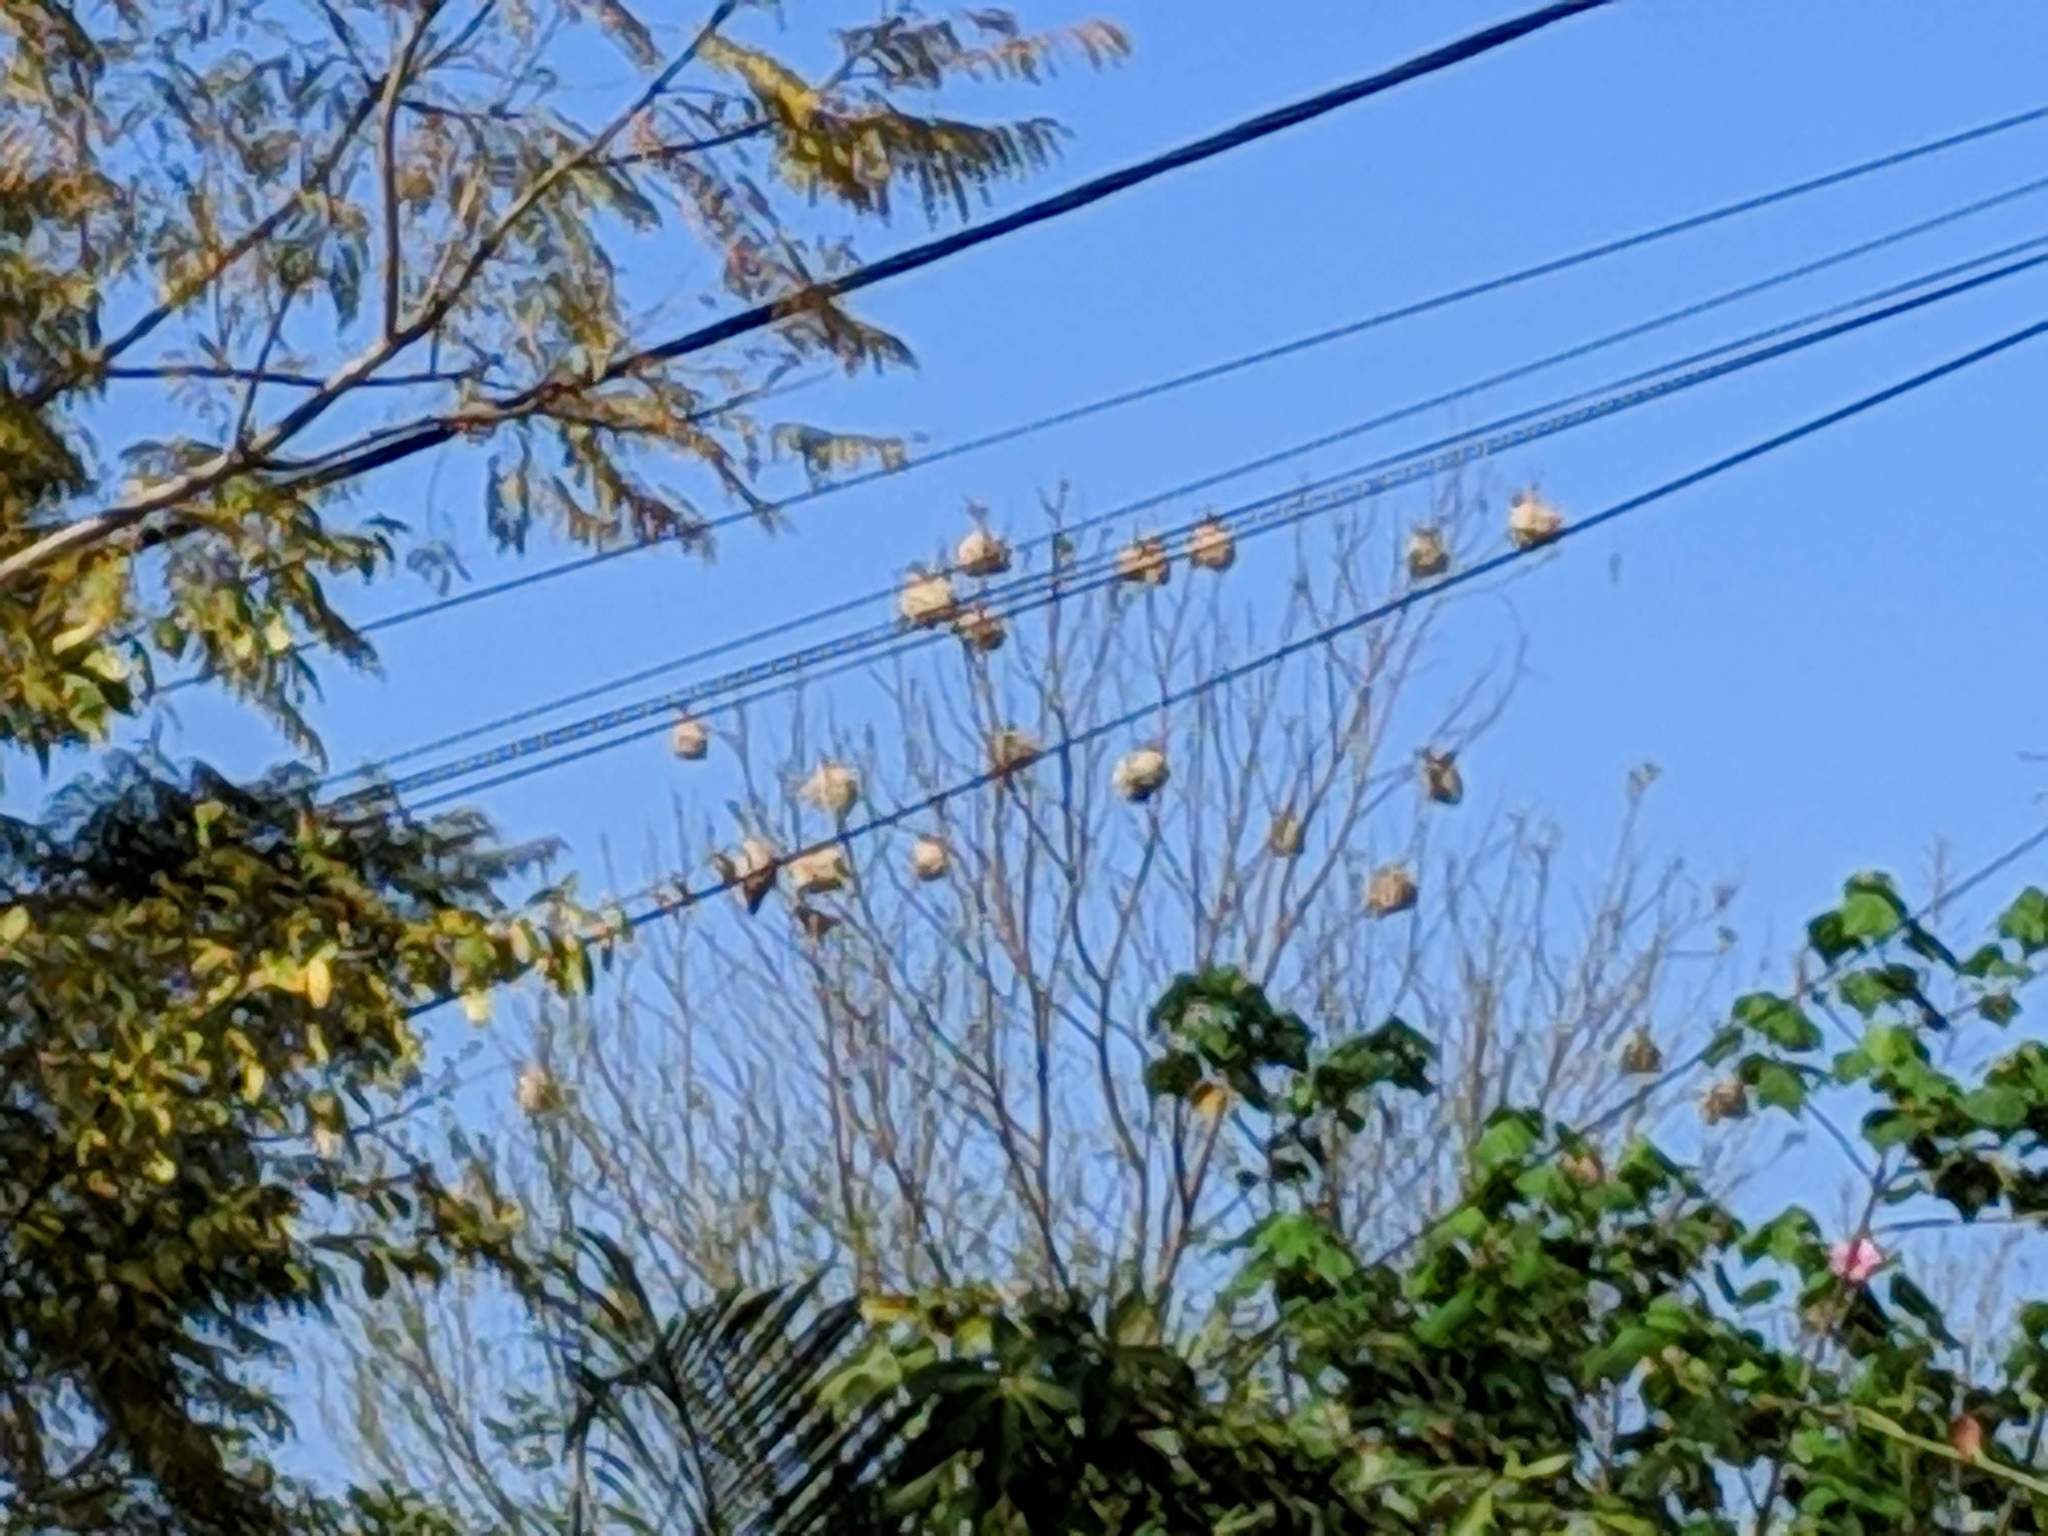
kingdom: Animalia
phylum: Chordata
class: Aves
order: Passeriformes
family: Ploceidae
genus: Ploceus
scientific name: Ploceus cucullatus
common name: Village weaver
